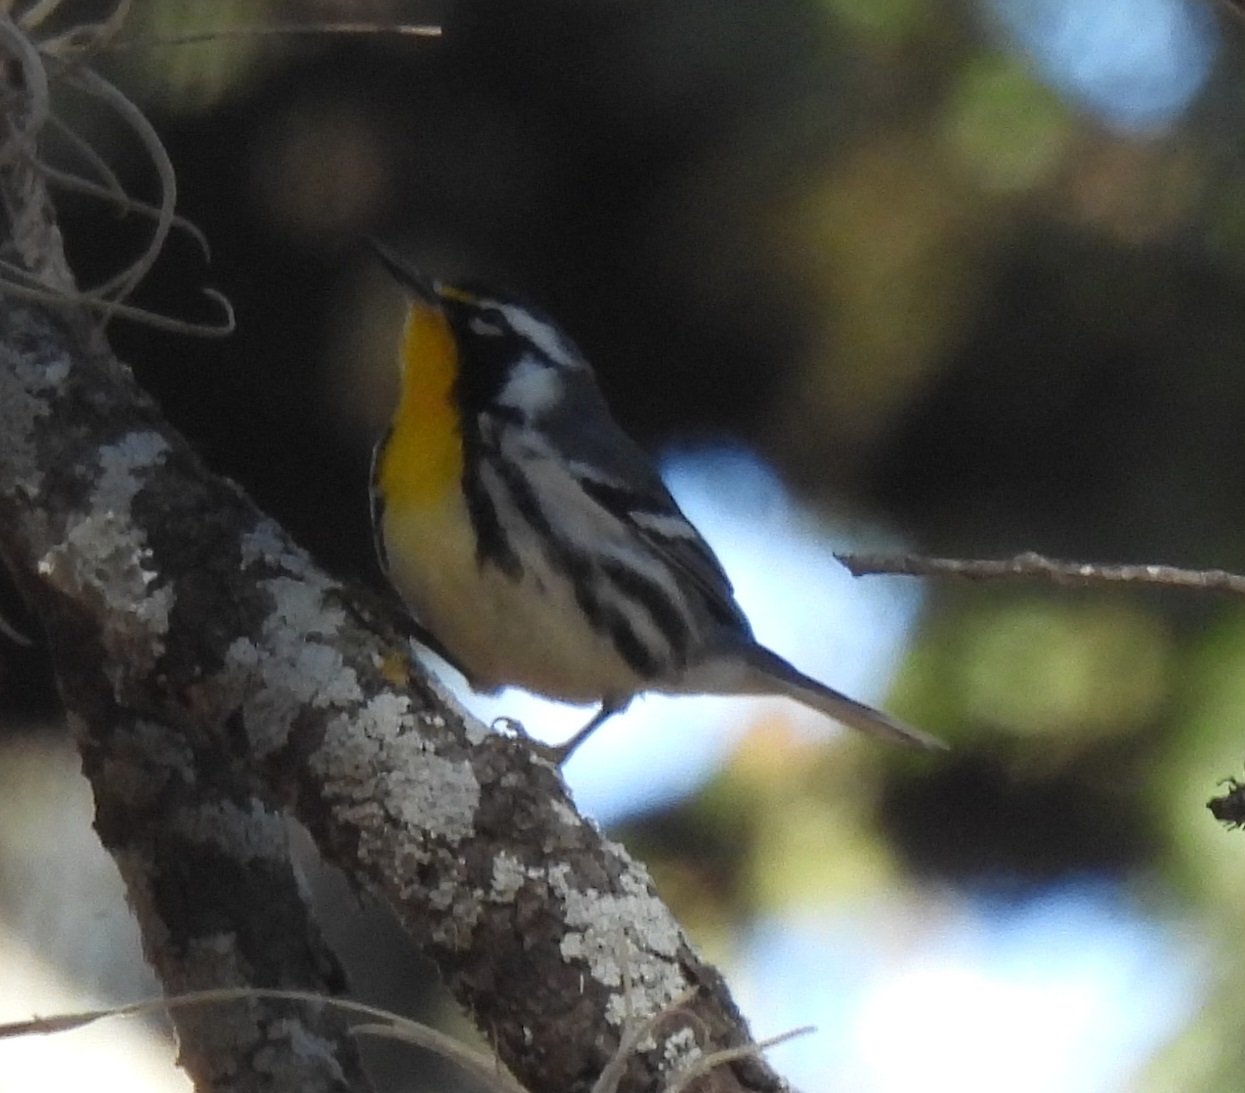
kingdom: Animalia
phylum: Chordata
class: Aves
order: Passeriformes
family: Parulidae
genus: Setophaga
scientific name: Setophaga dominica
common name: Yellow-throated warbler
